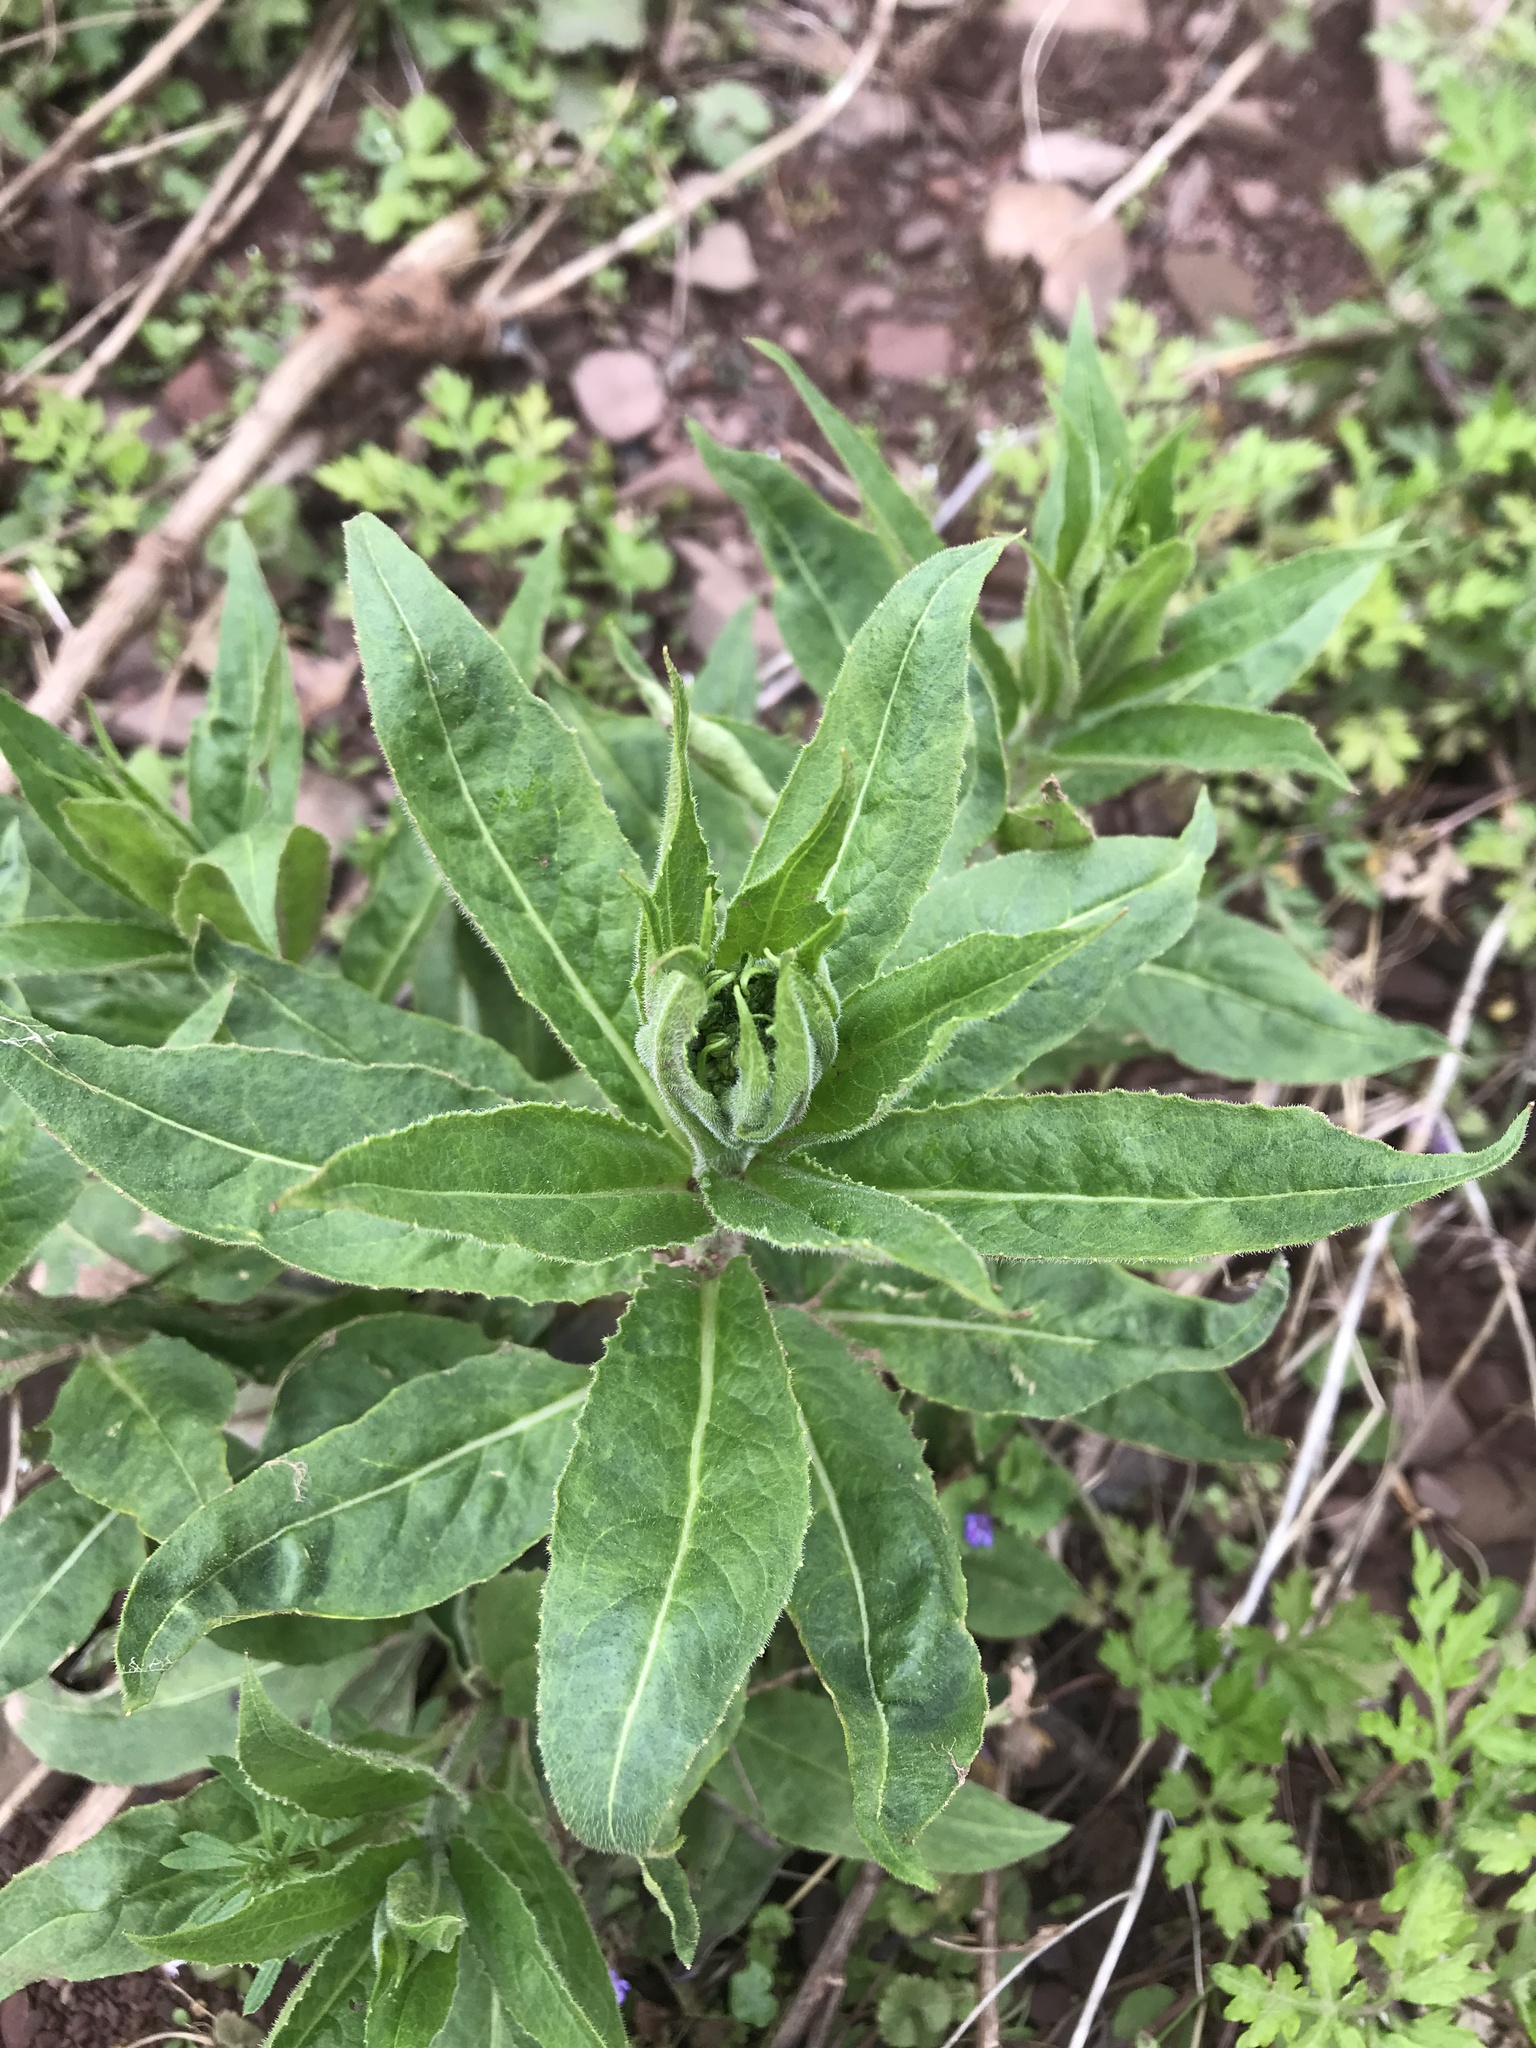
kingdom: Plantae
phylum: Tracheophyta
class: Magnoliopsida
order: Brassicales
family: Brassicaceae
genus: Hesperis
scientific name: Hesperis matronalis
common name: Dame's-violet
